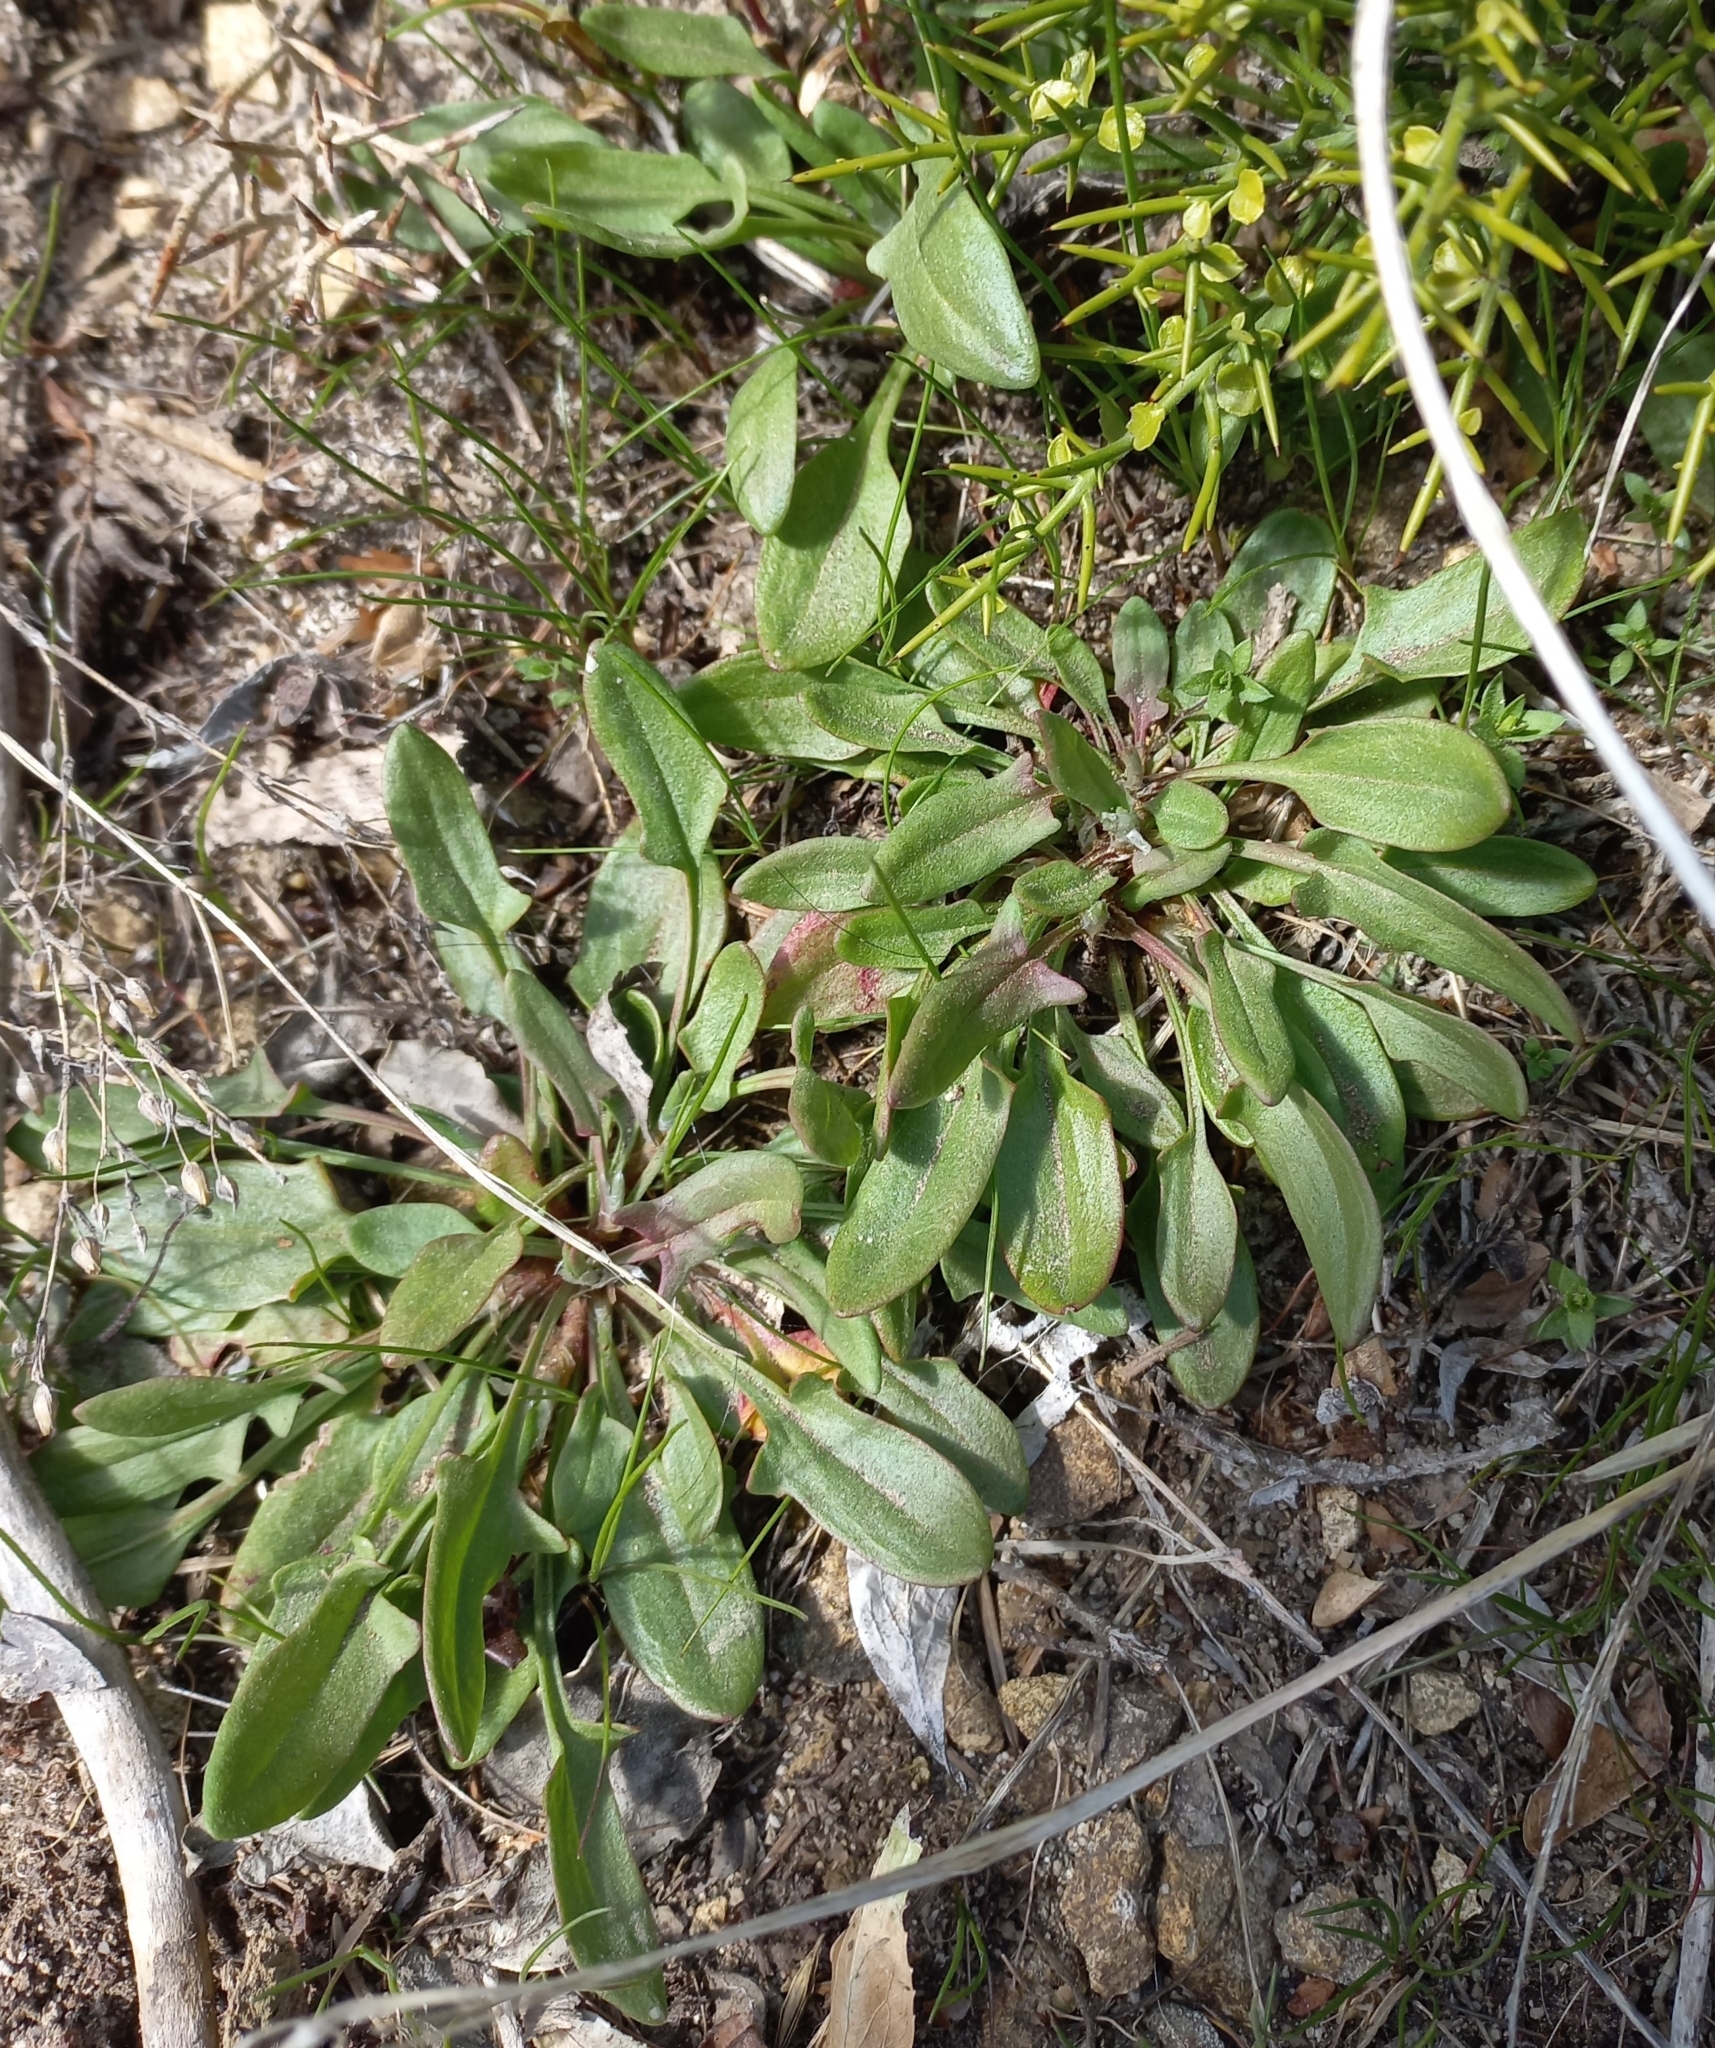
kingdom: Plantae
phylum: Tracheophyta
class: Magnoliopsida
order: Caryophyllales
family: Polygonaceae
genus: Rumex
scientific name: Rumex acetosella
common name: Common sheep sorrel
